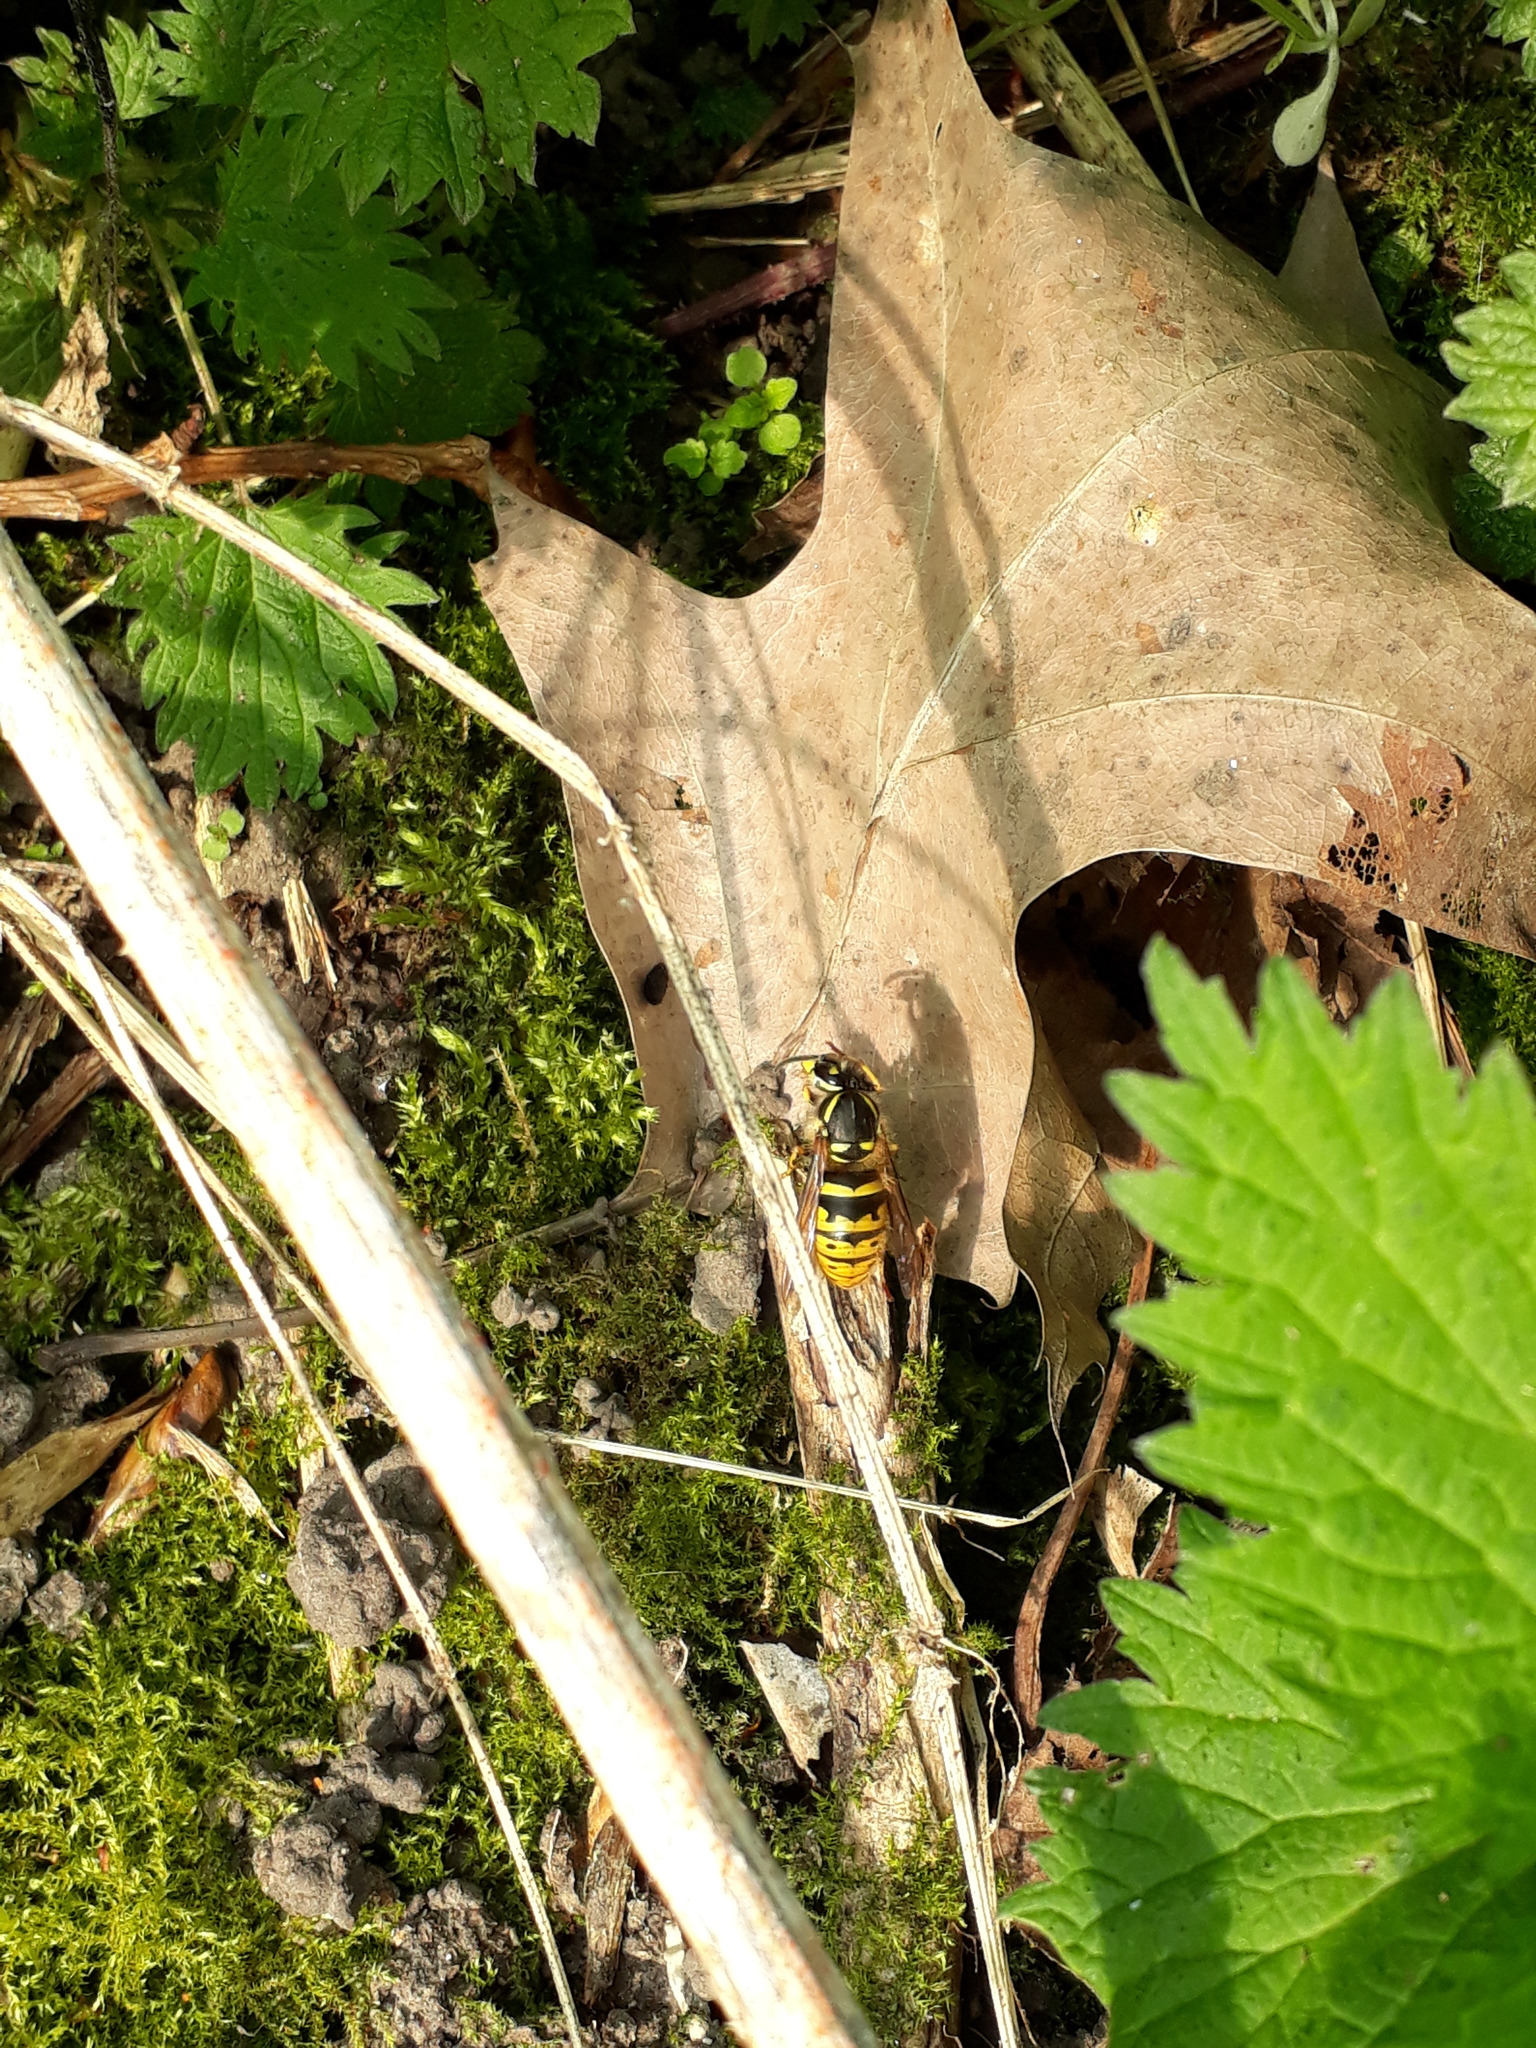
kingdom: Animalia
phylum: Arthropoda
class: Insecta
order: Hymenoptera
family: Vespidae
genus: Vespula
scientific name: Vespula vulgaris
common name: Common wasp
